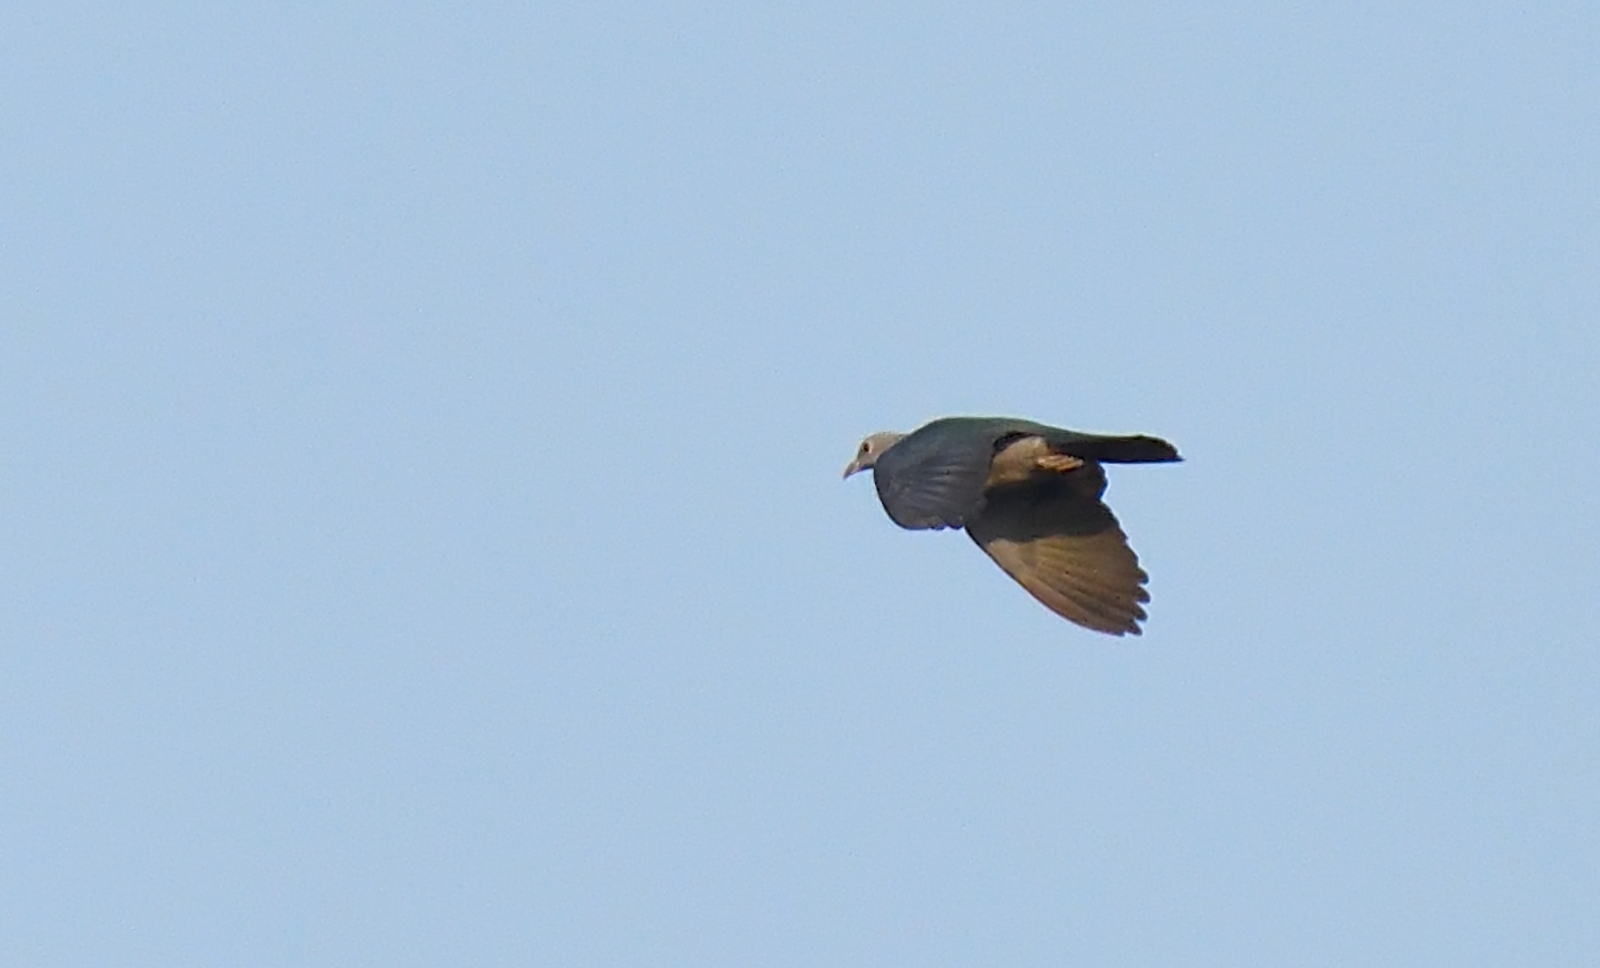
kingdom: Animalia
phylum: Chordata
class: Aves
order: Columbiformes
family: Columbidae
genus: Ducula
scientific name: Ducula aenea
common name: Green imperial pigeon
